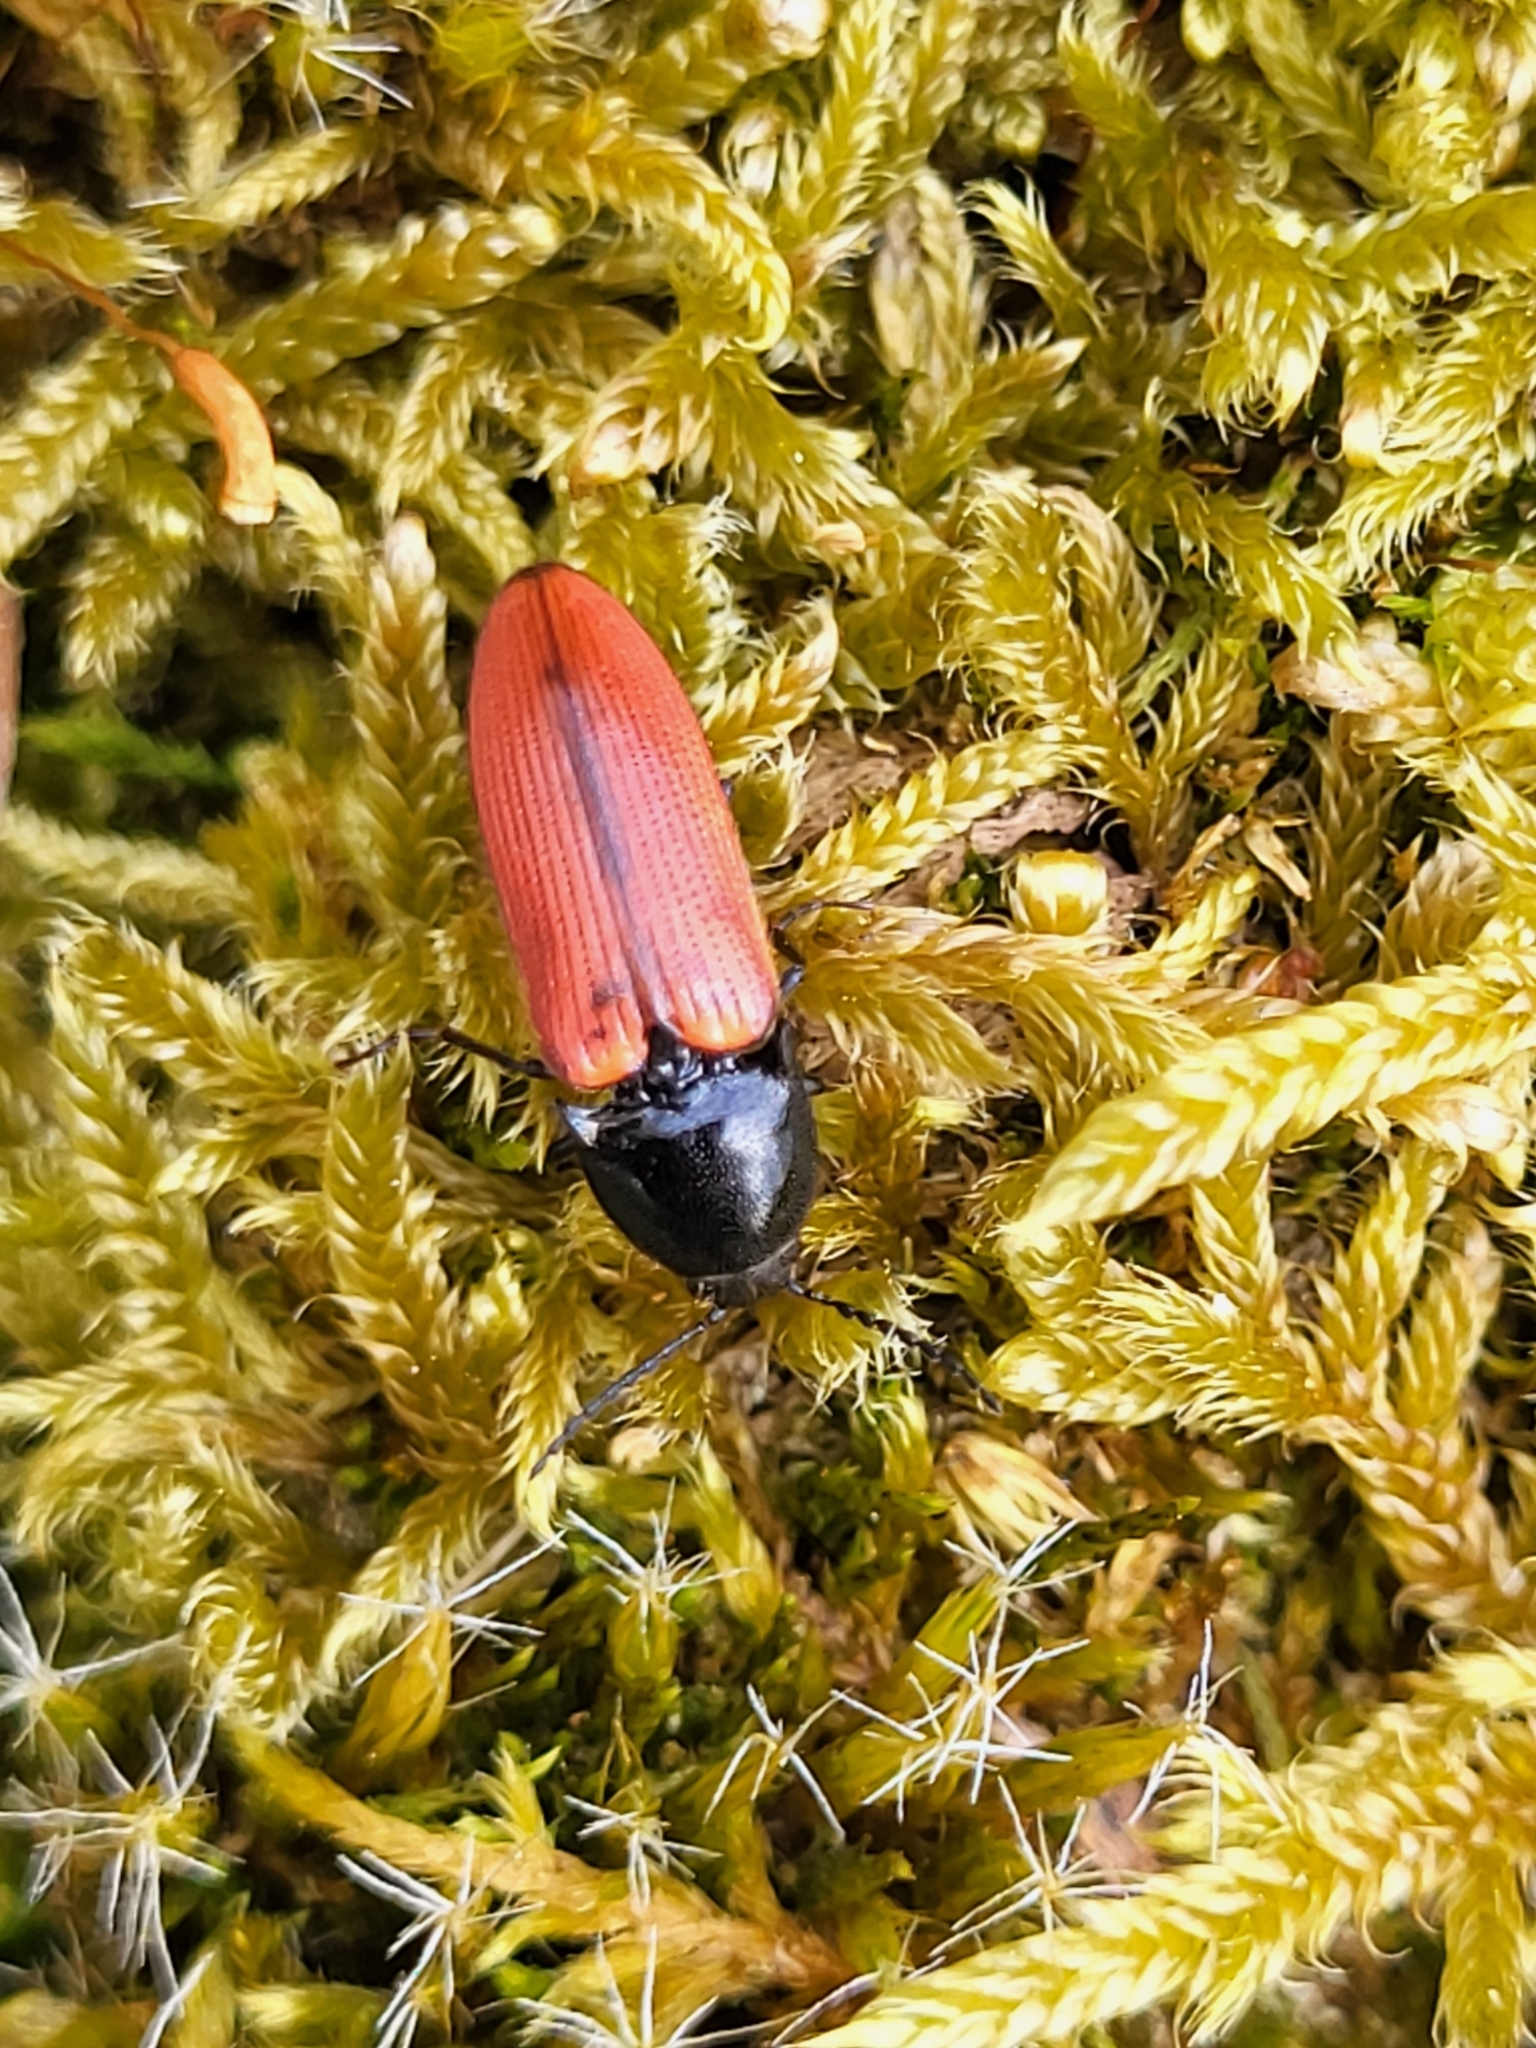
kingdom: Animalia
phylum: Arthropoda
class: Insecta
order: Coleoptera
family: Elateridae
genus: Ampedus
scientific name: Ampedus sanguineus
